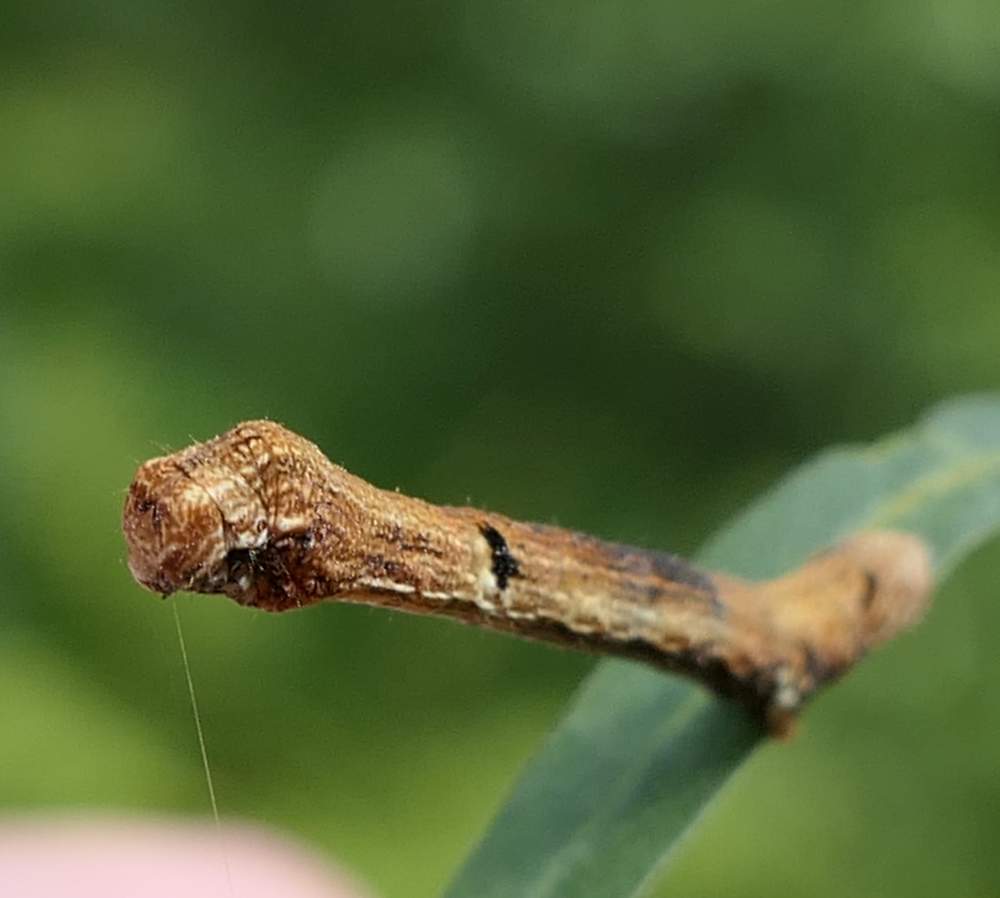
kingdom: Animalia
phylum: Arthropoda
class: Insecta
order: Lepidoptera
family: Geometridae
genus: Ectropis
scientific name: Ectropis crepuscularia
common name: Engrailed
